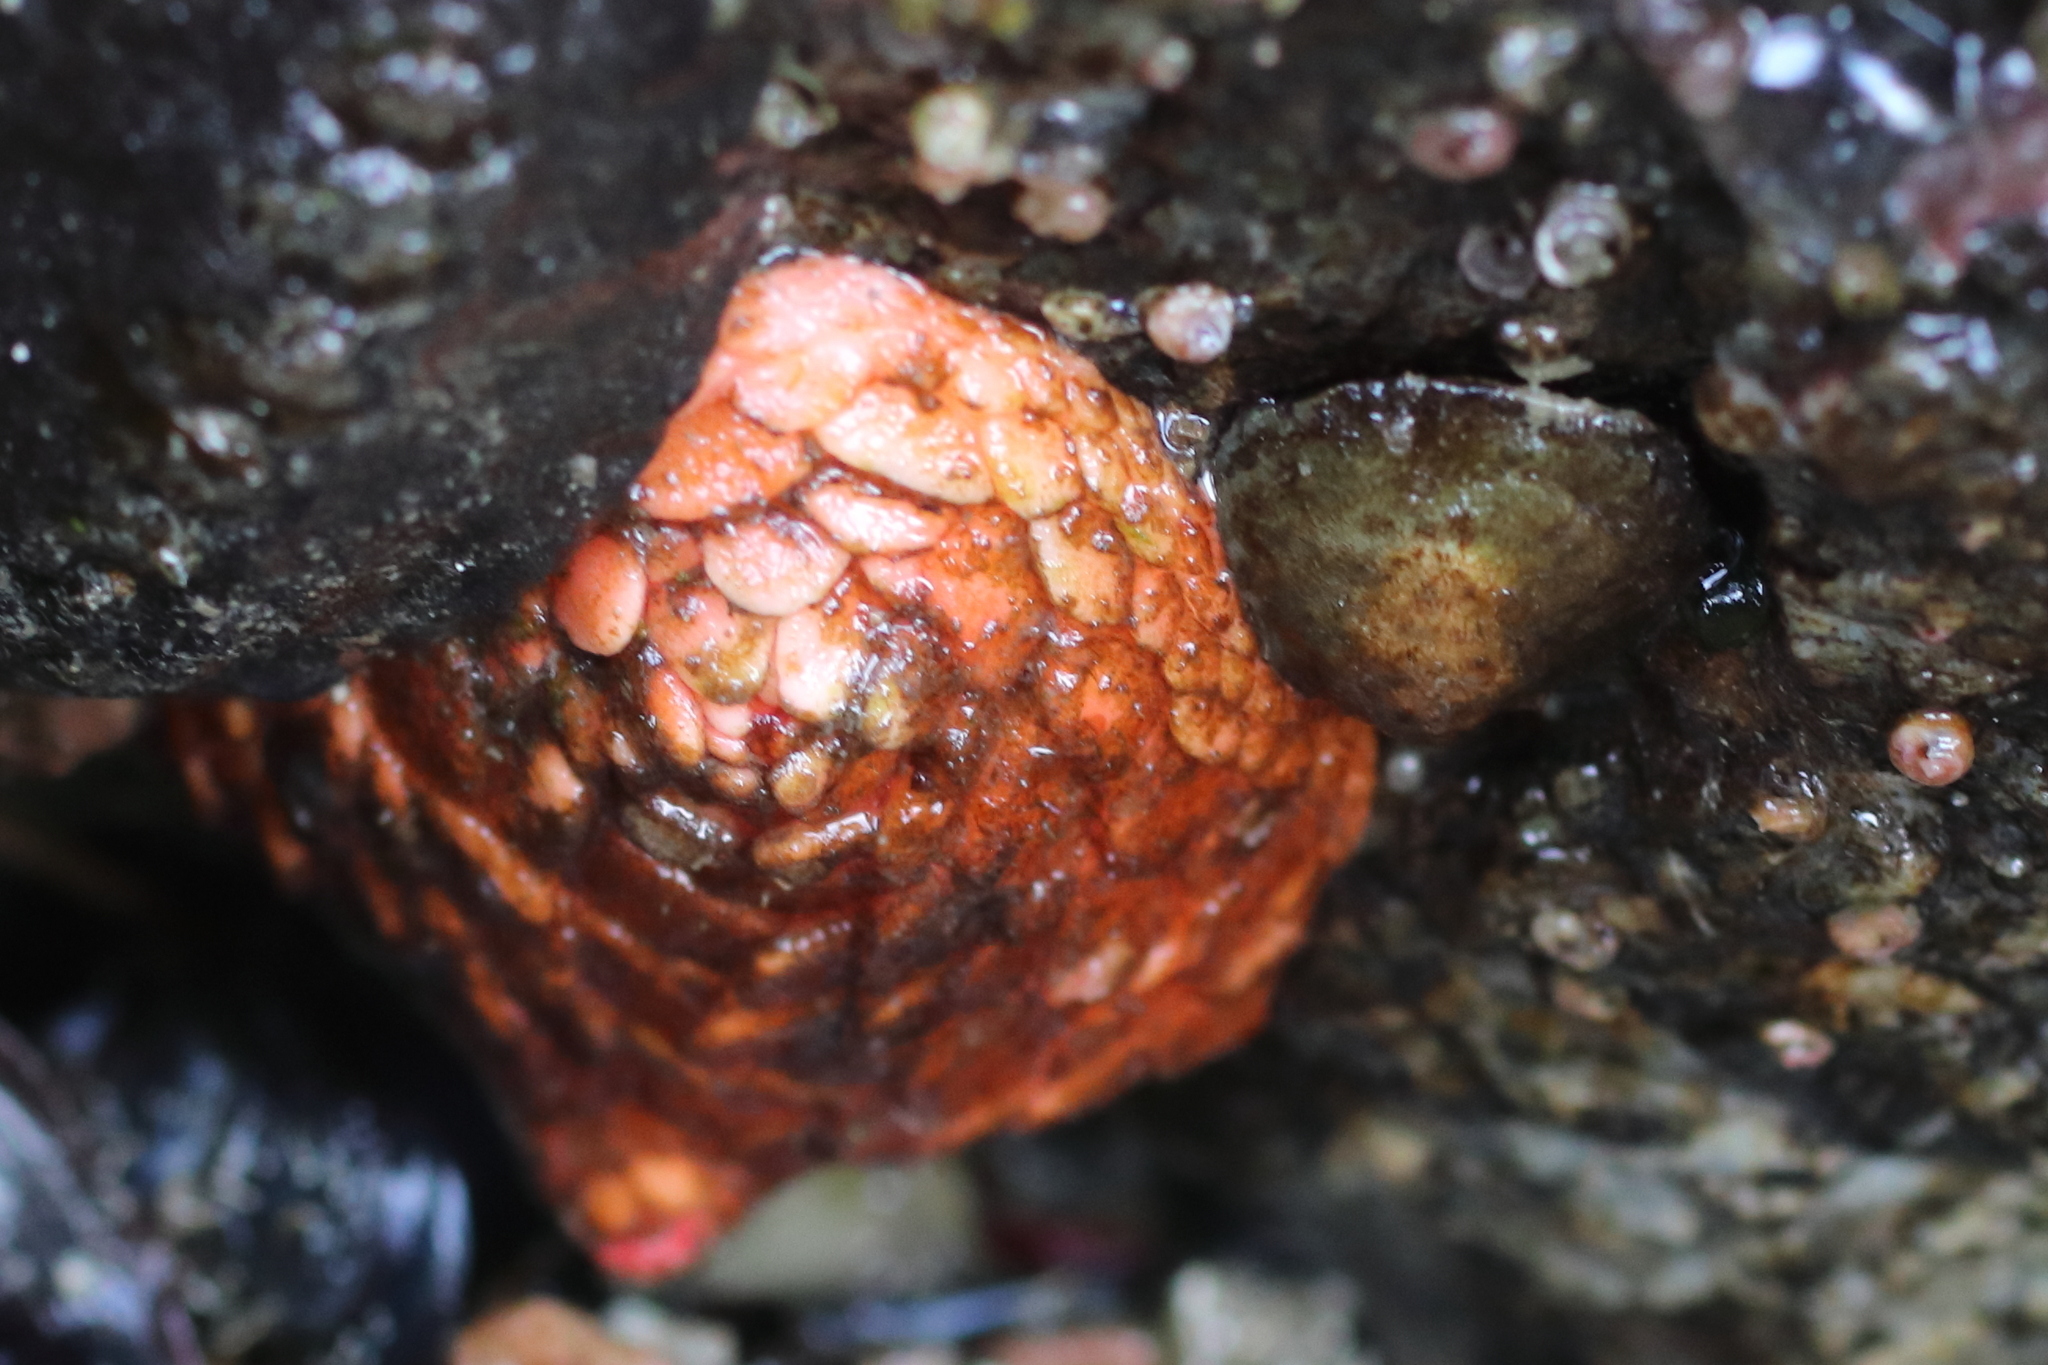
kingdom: Animalia
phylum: Echinodermata
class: Holothuroidea
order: Dendrochirotida
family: Psolidae
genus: Psolus
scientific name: Psolus chitonoides
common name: Creeping pedal sea cucumber
